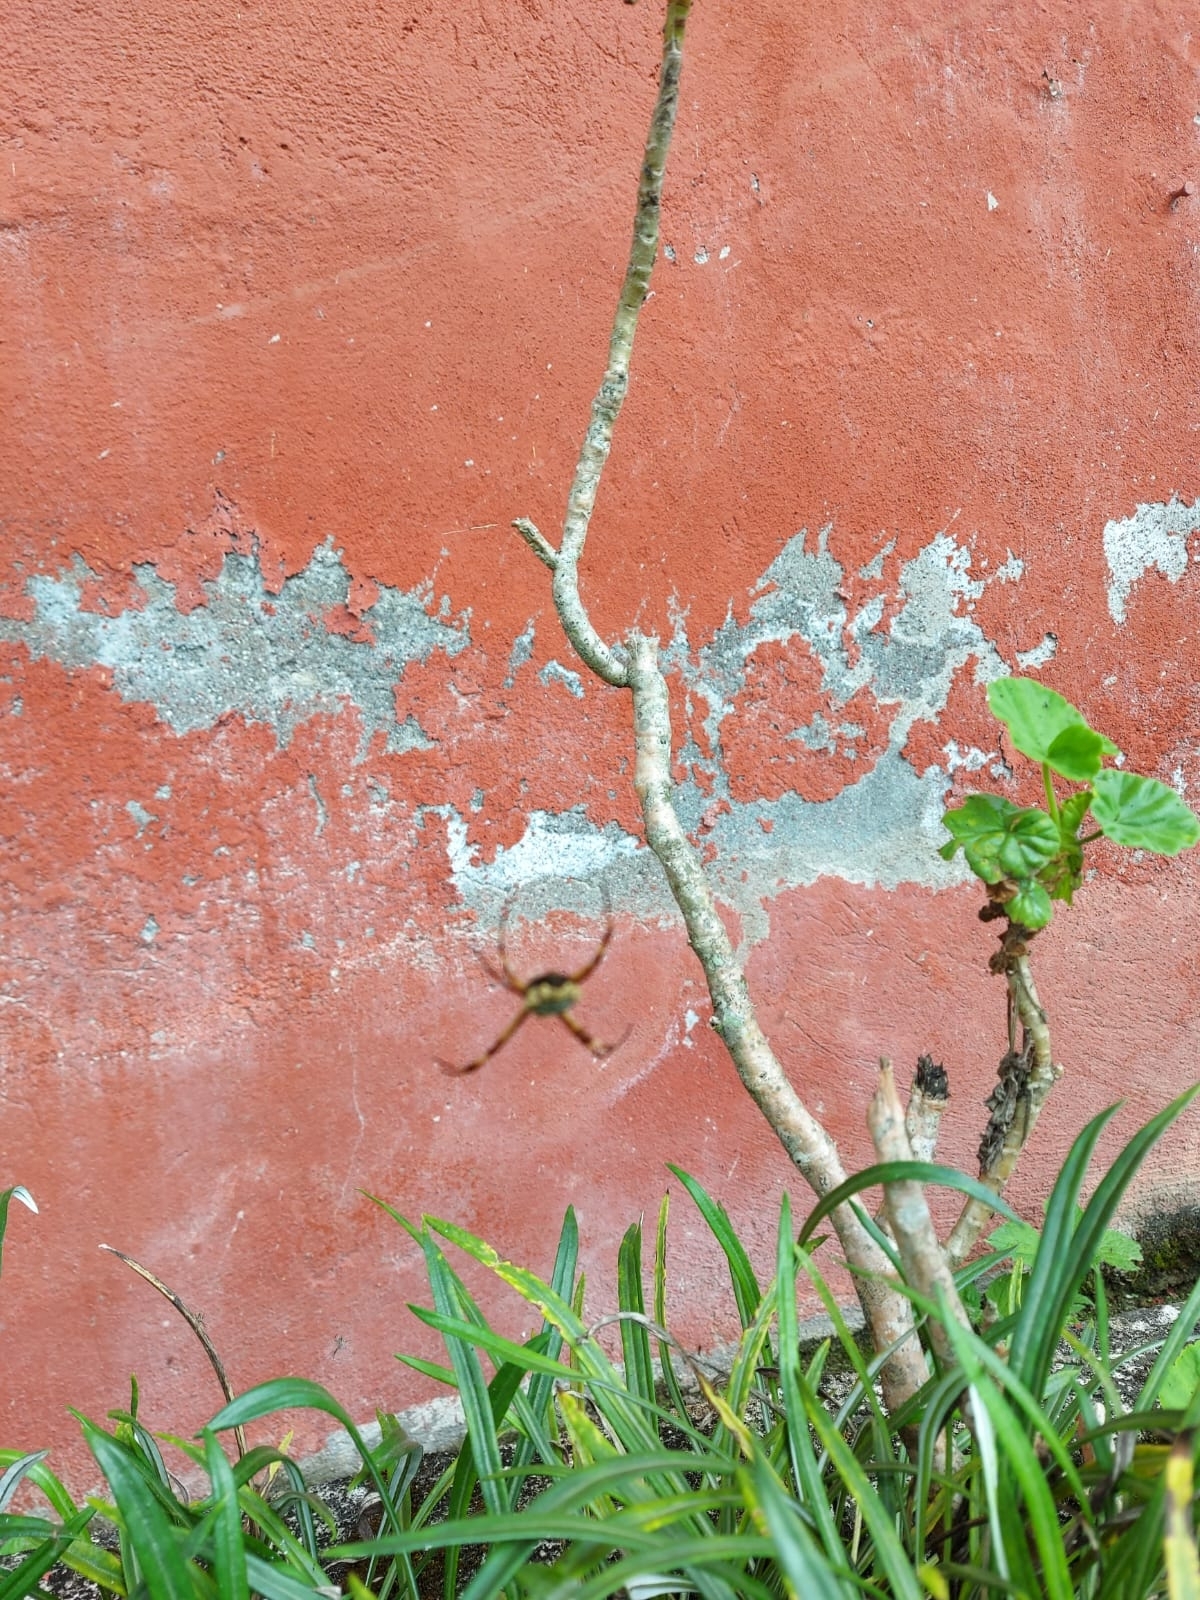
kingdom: Animalia
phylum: Arthropoda
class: Arachnida
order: Araneae
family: Araneidae
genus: Argiope
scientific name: Argiope argentata
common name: Orb weavers
